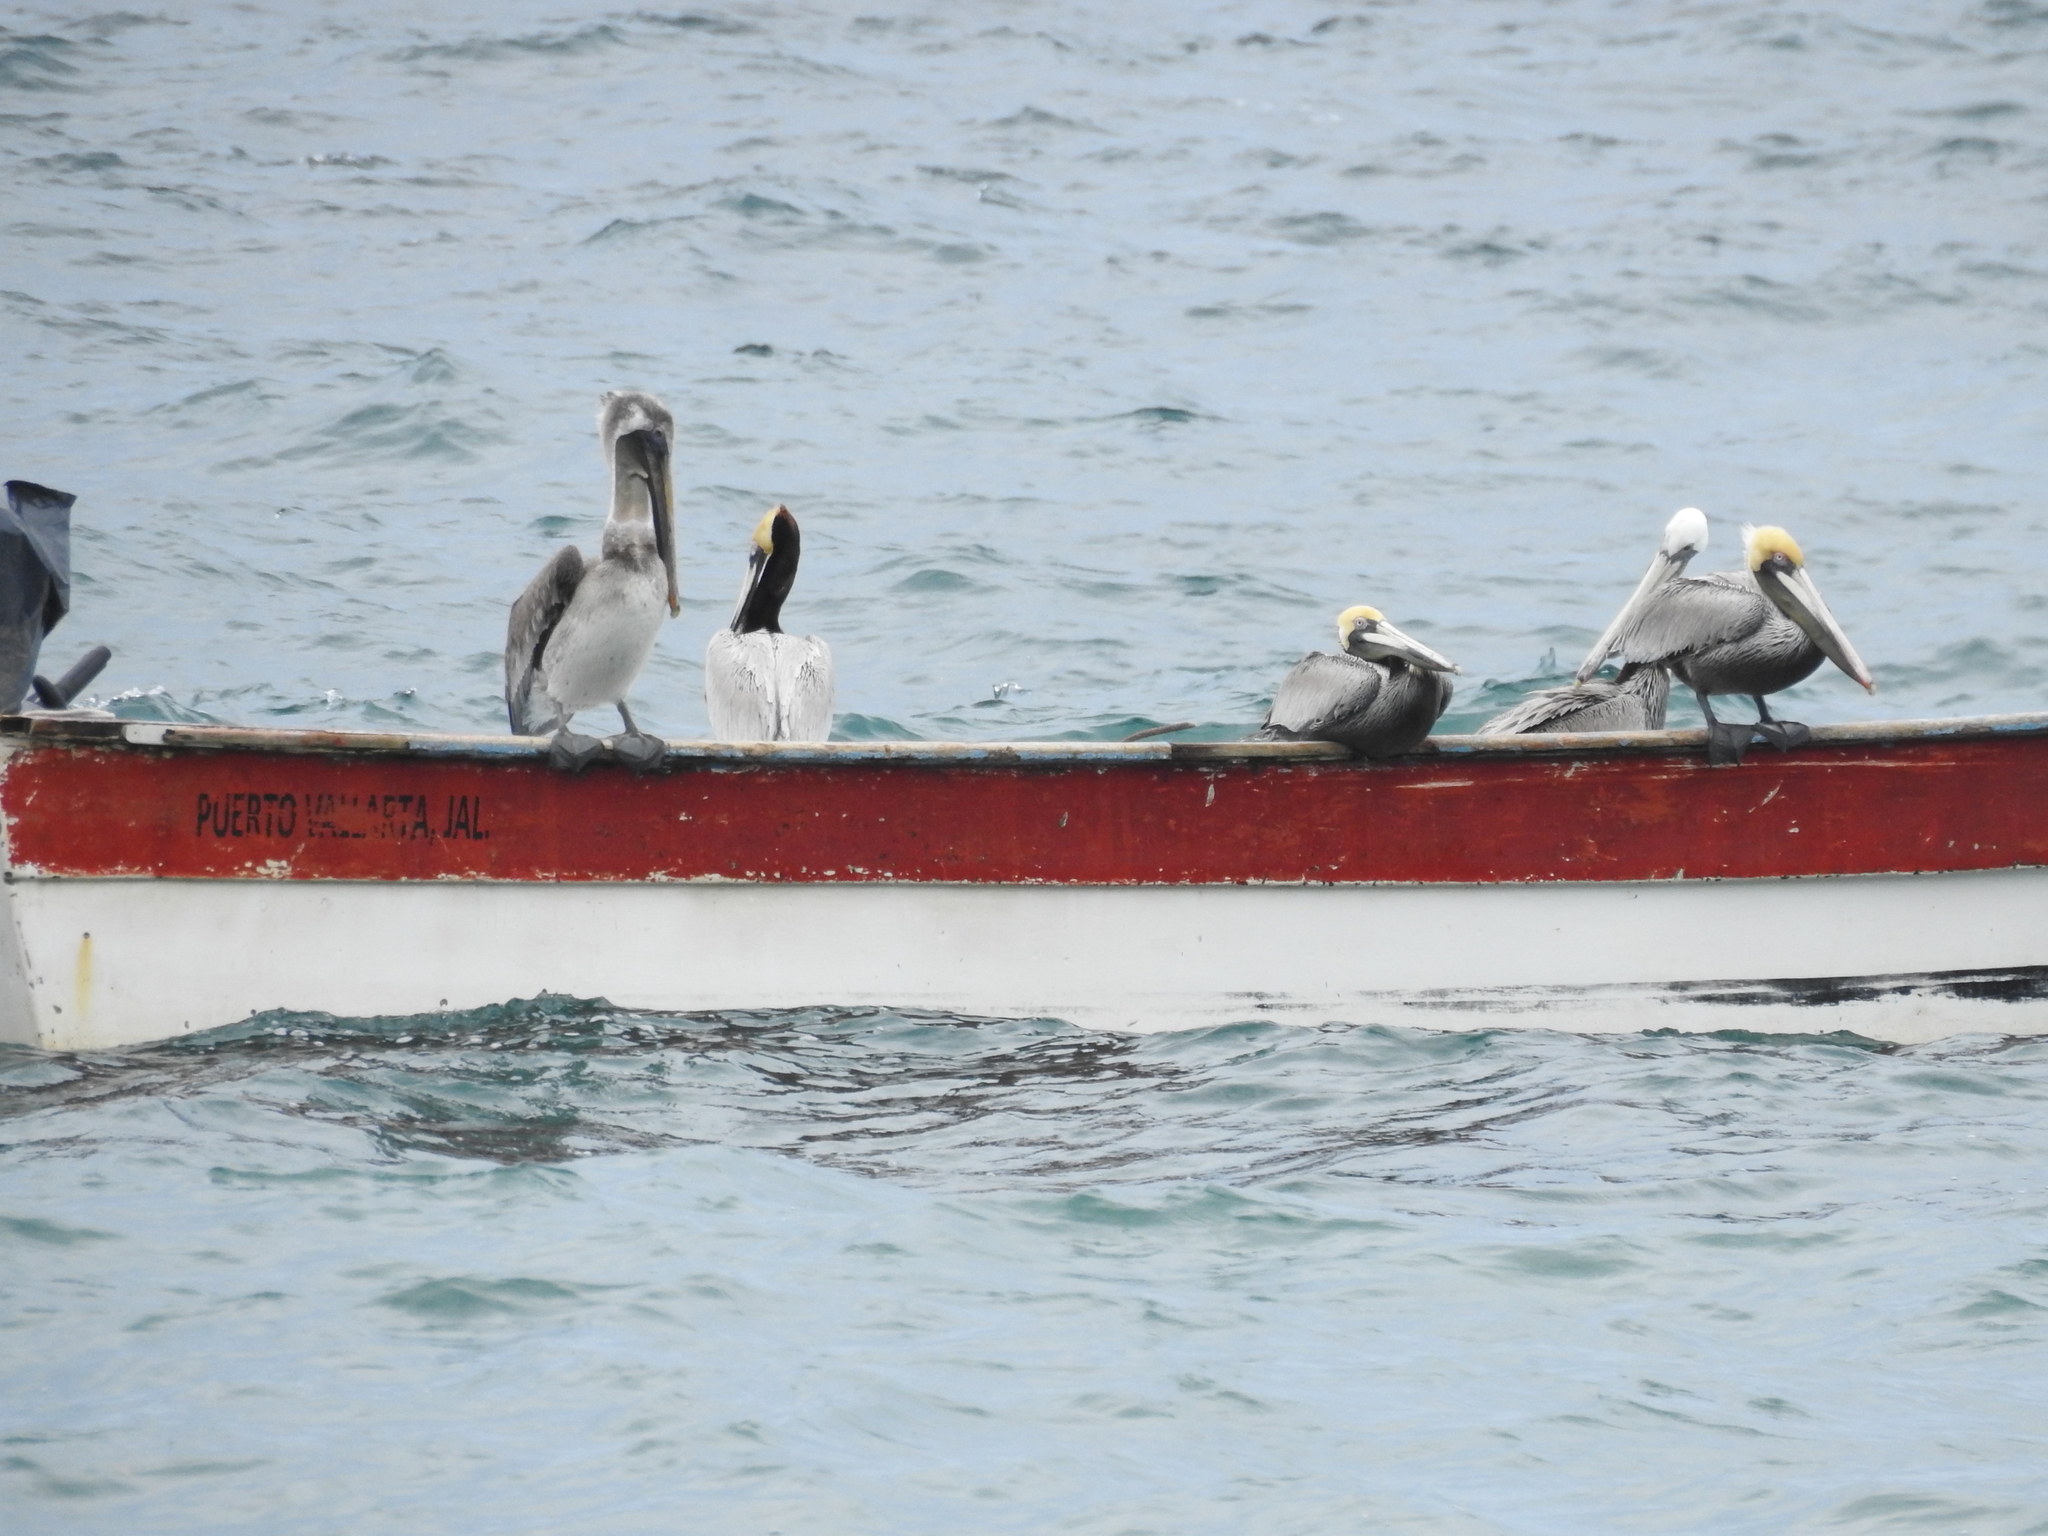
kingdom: Animalia
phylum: Chordata
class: Aves
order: Pelecaniformes
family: Pelecanidae
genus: Pelecanus
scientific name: Pelecanus occidentalis
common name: Brown pelican
